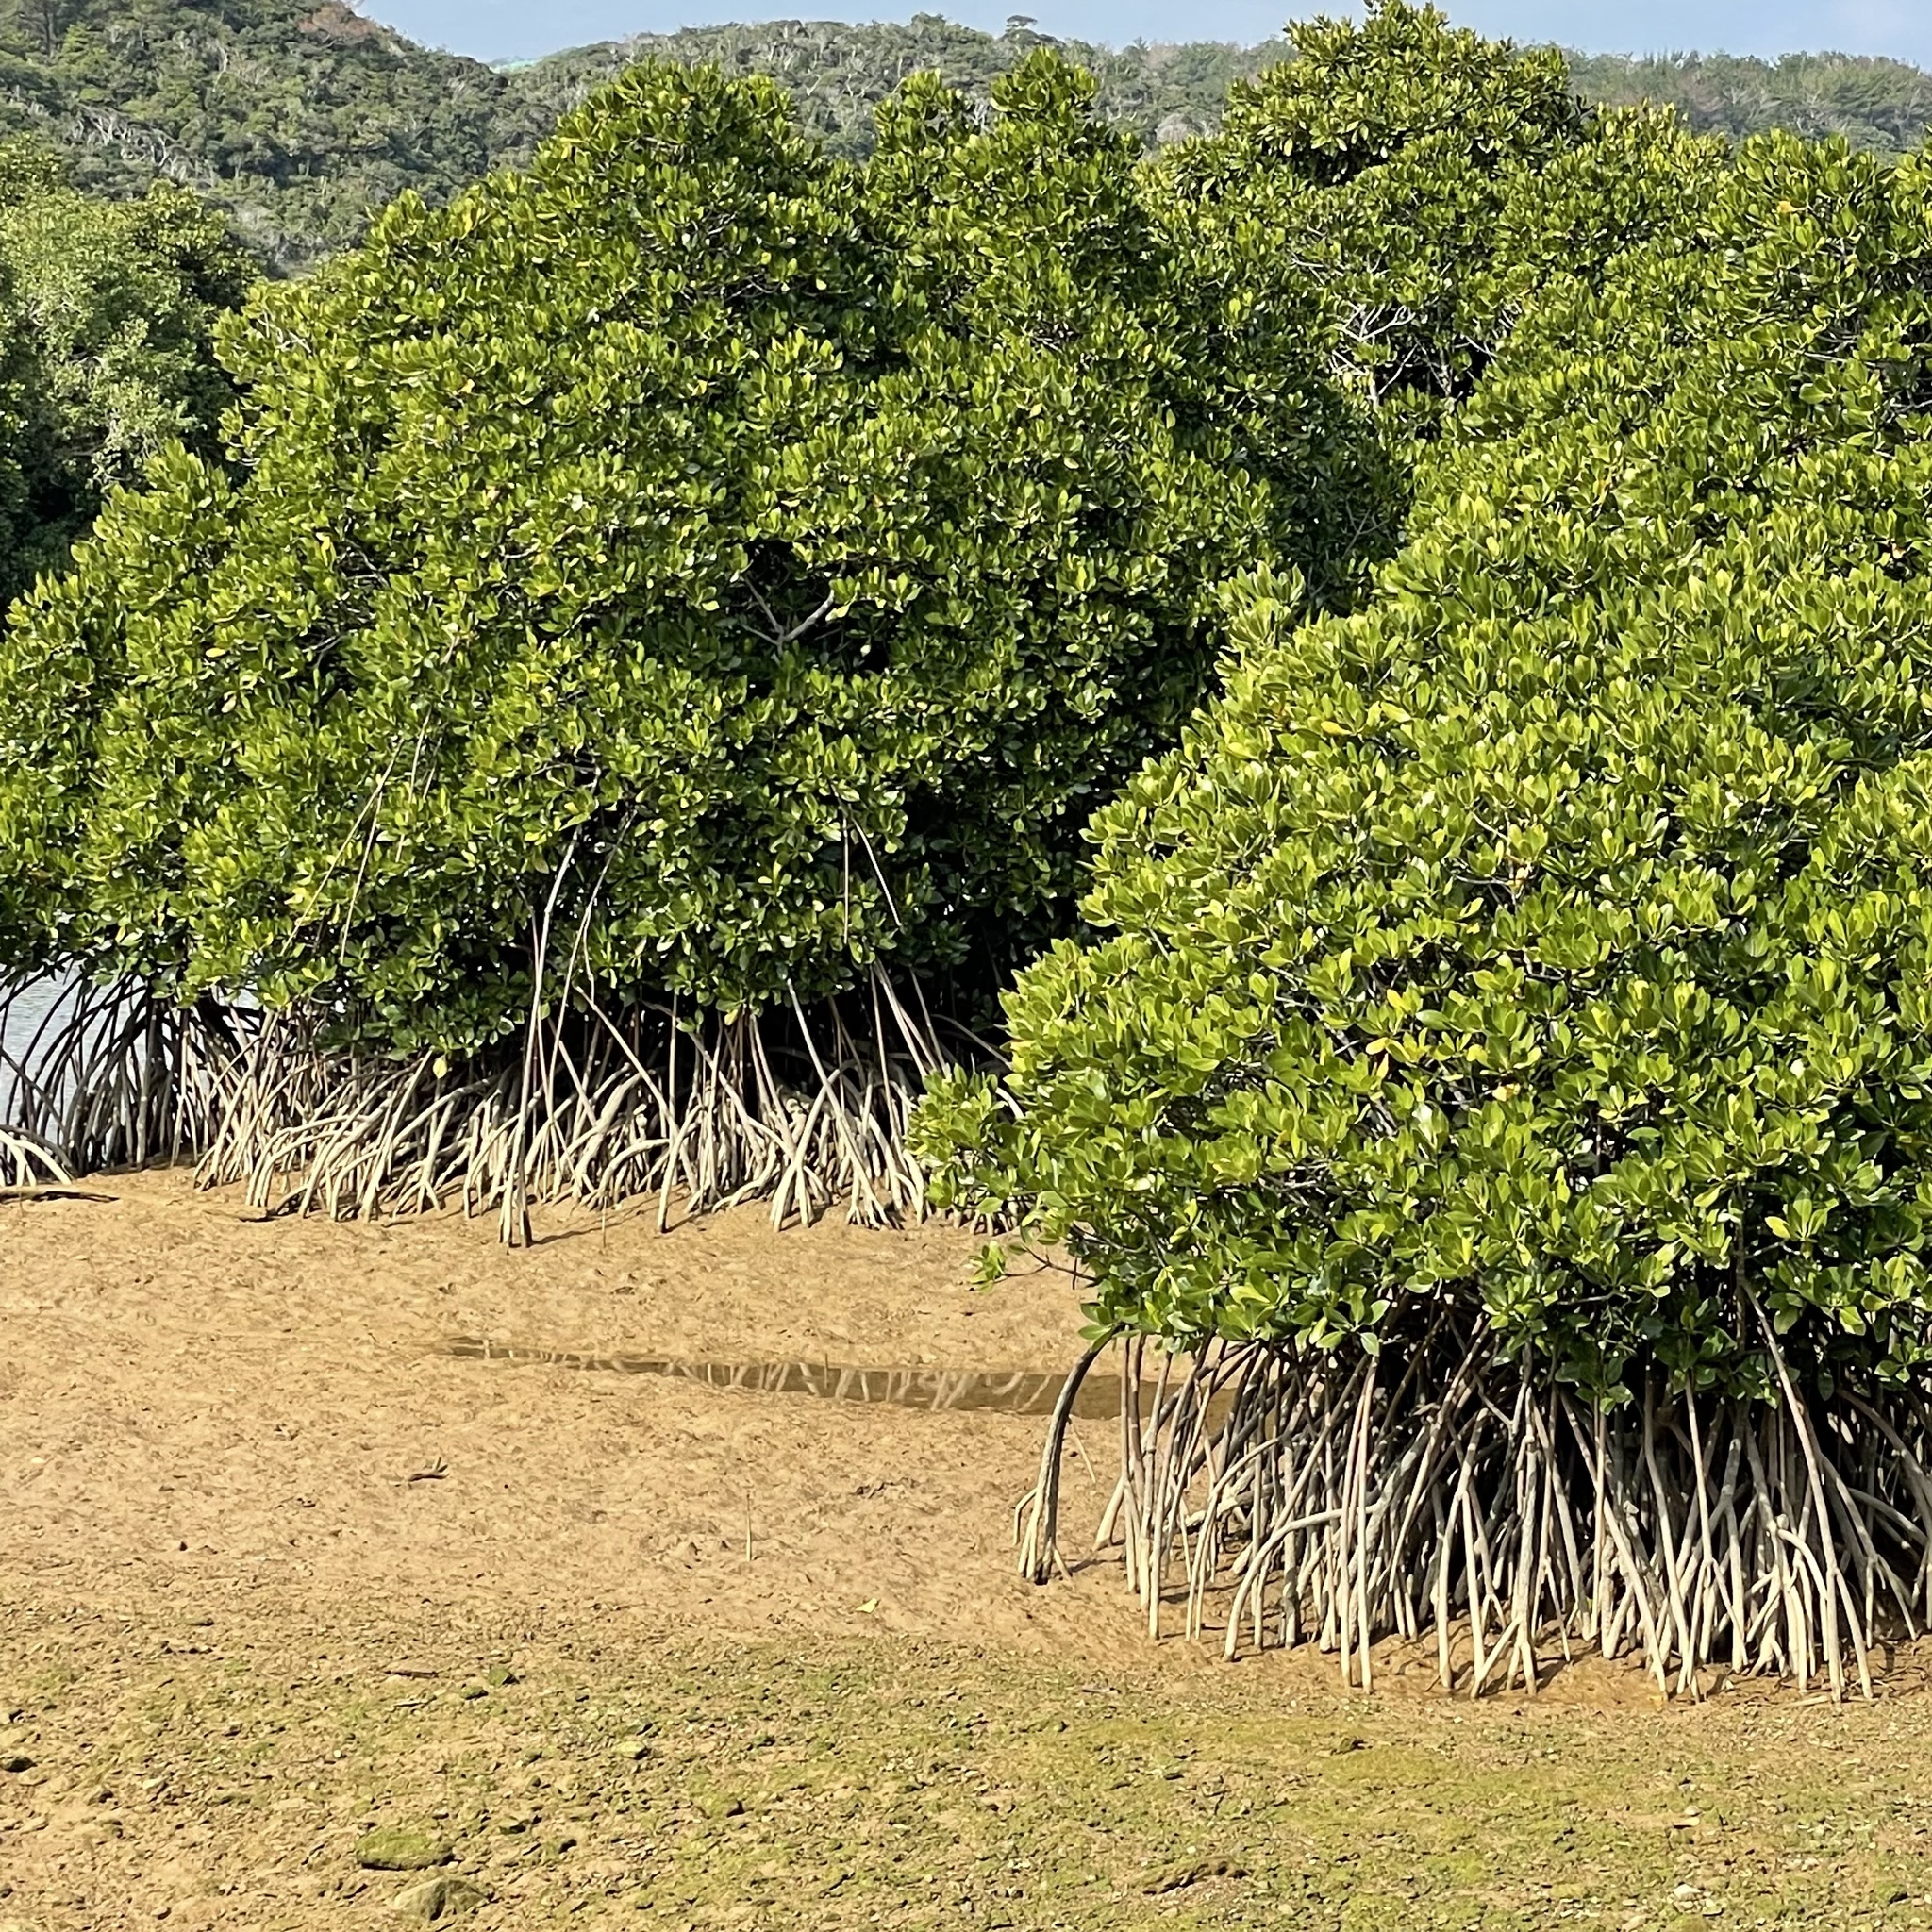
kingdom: Plantae
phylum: Tracheophyta
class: Magnoliopsida
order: Malpighiales
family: Rhizophoraceae
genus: Rhizophora
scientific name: Rhizophora stylosa
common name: Red mangrove
